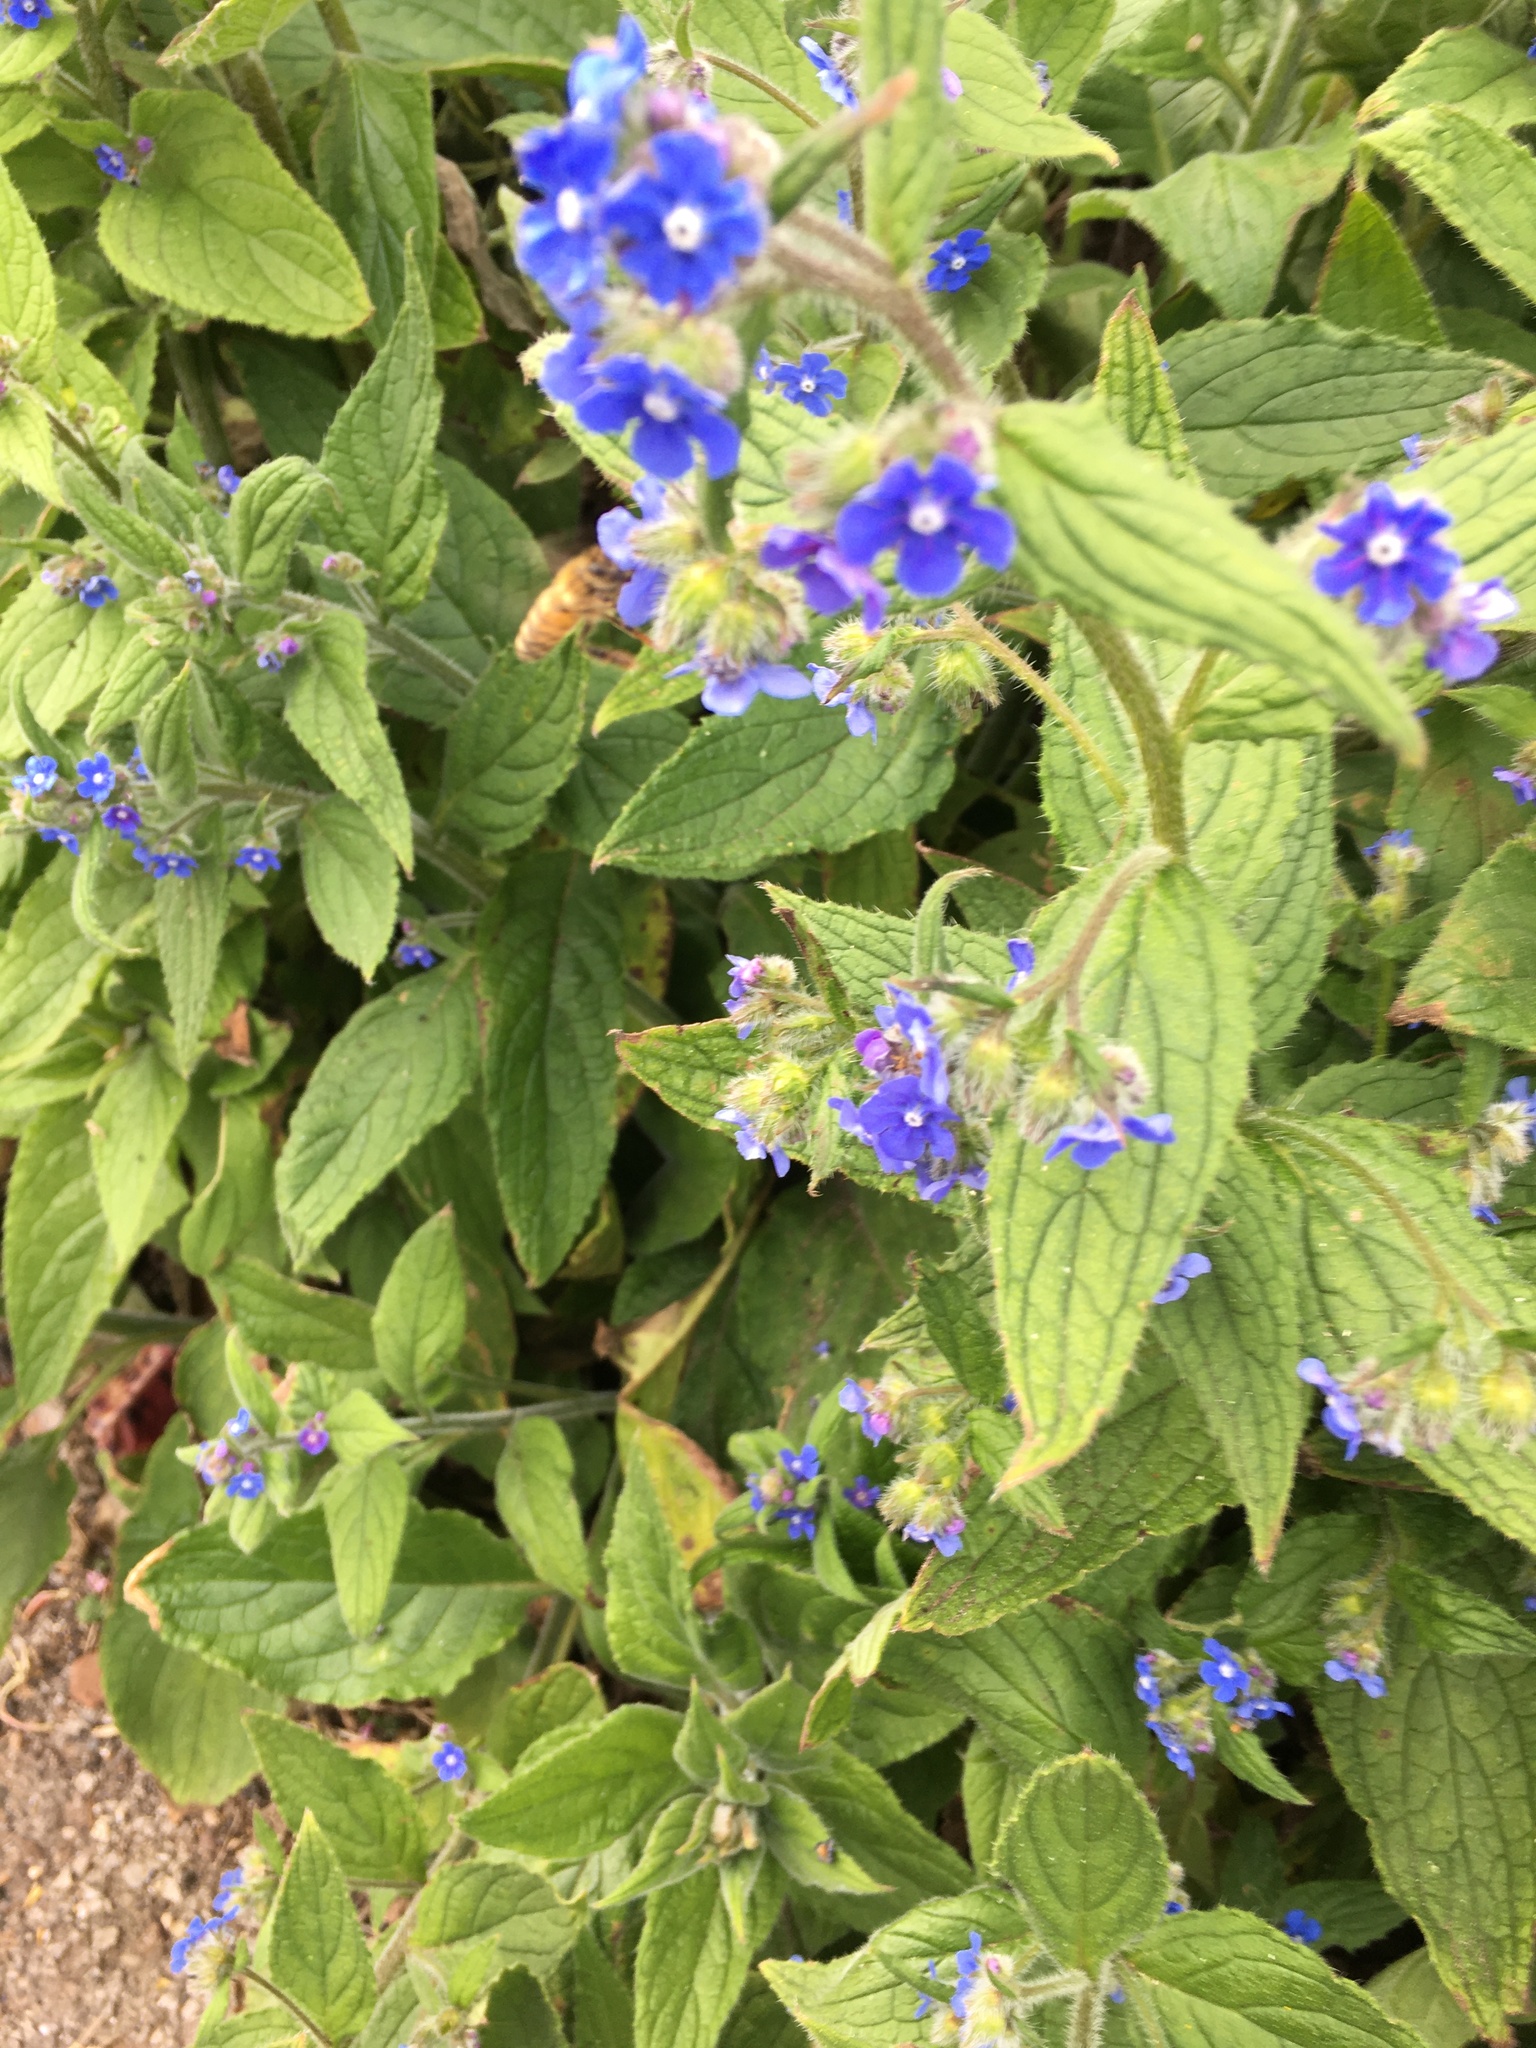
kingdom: Animalia
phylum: Arthropoda
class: Insecta
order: Hymenoptera
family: Apidae
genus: Apis
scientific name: Apis mellifera
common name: Honey bee
